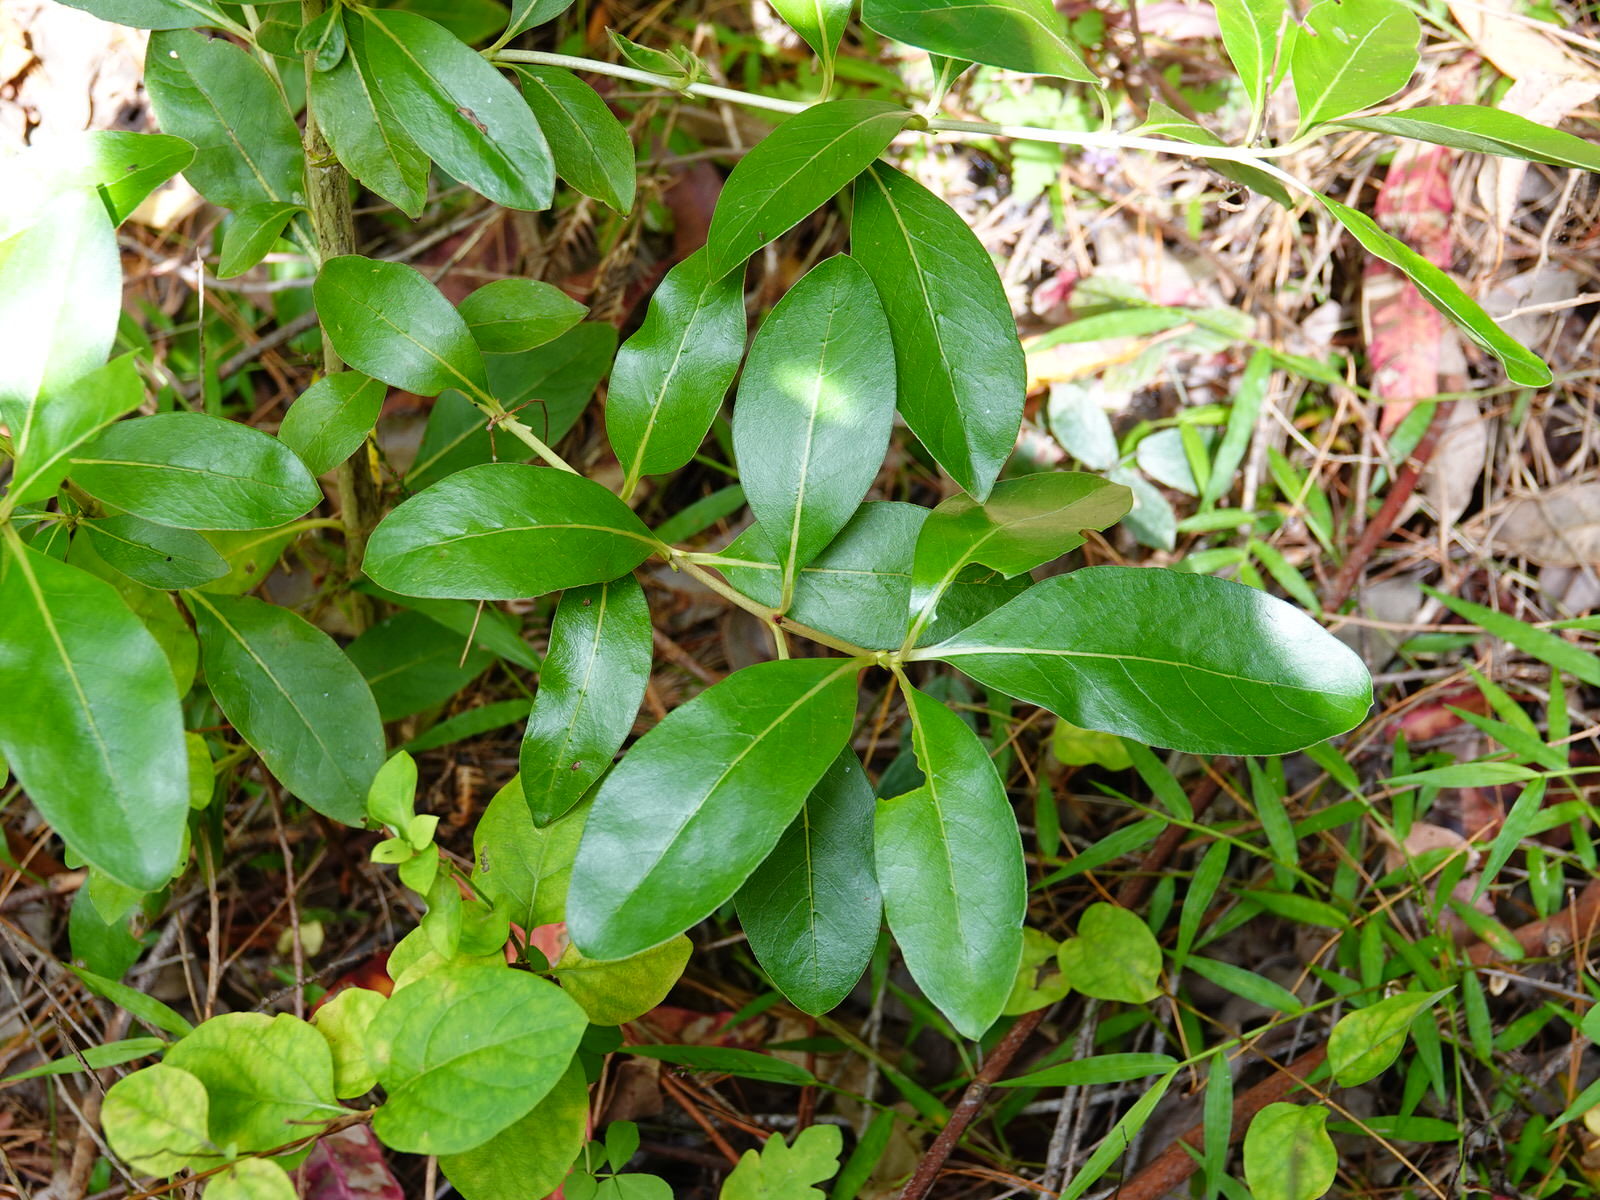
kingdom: Plantae
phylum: Tracheophyta
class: Magnoliopsida
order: Gentianales
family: Rubiaceae
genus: Coprosma
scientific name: Coprosma robusta
